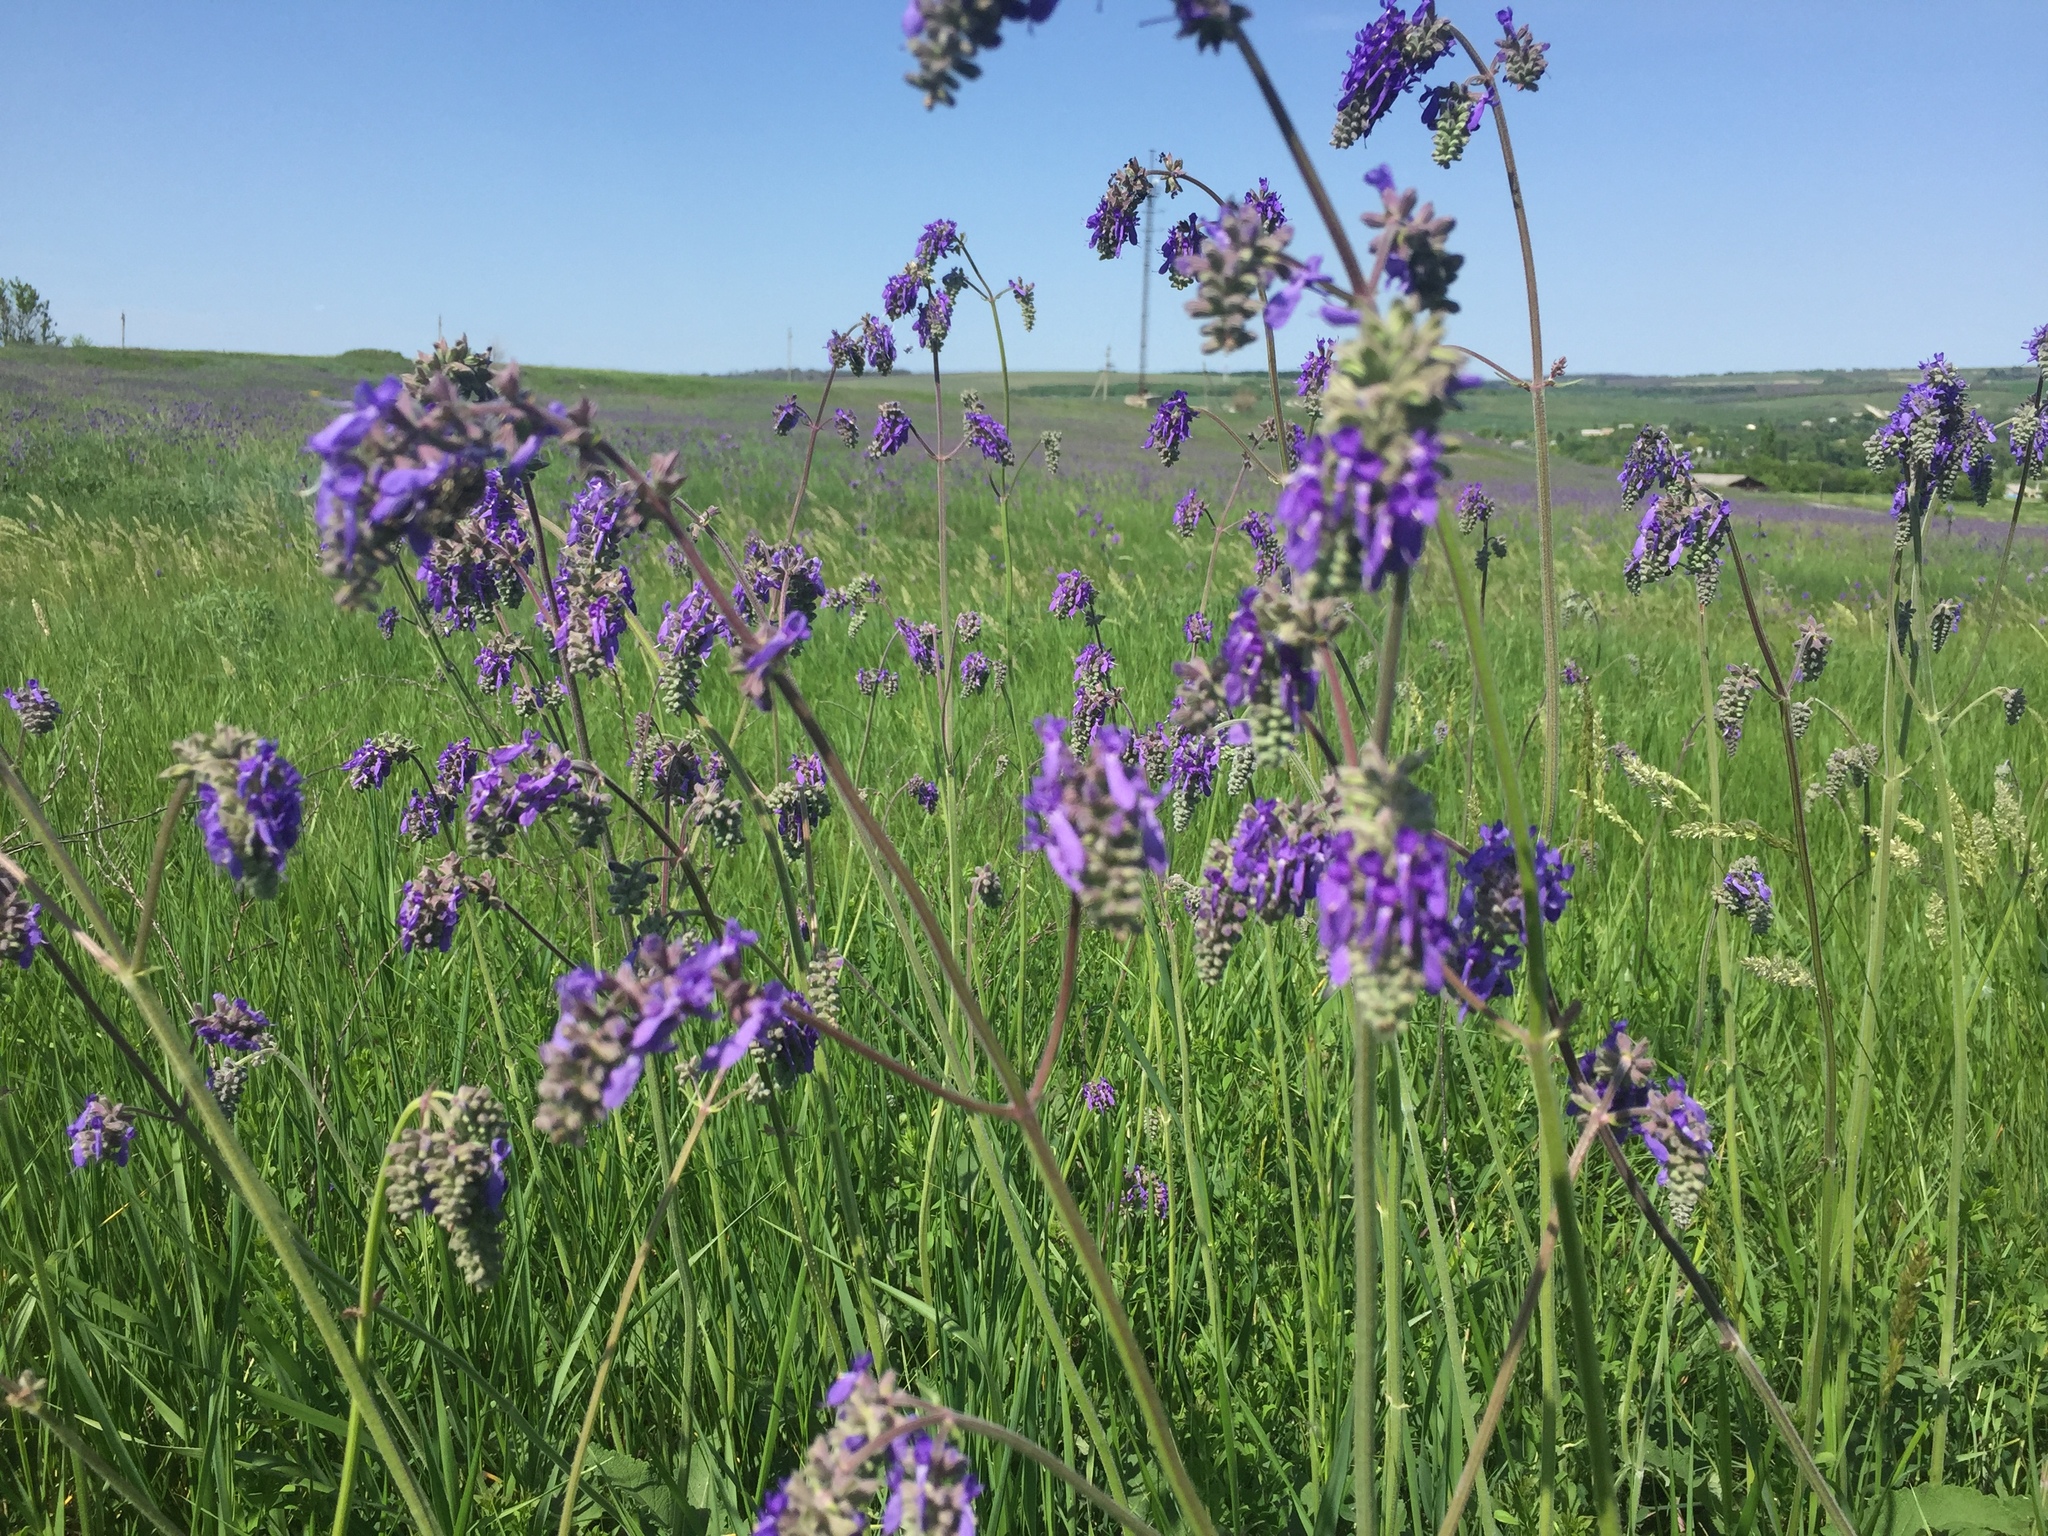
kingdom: Plantae
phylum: Tracheophyta
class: Magnoliopsida
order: Lamiales
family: Lamiaceae
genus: Salvia
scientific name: Salvia nutans
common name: Nodding sage
